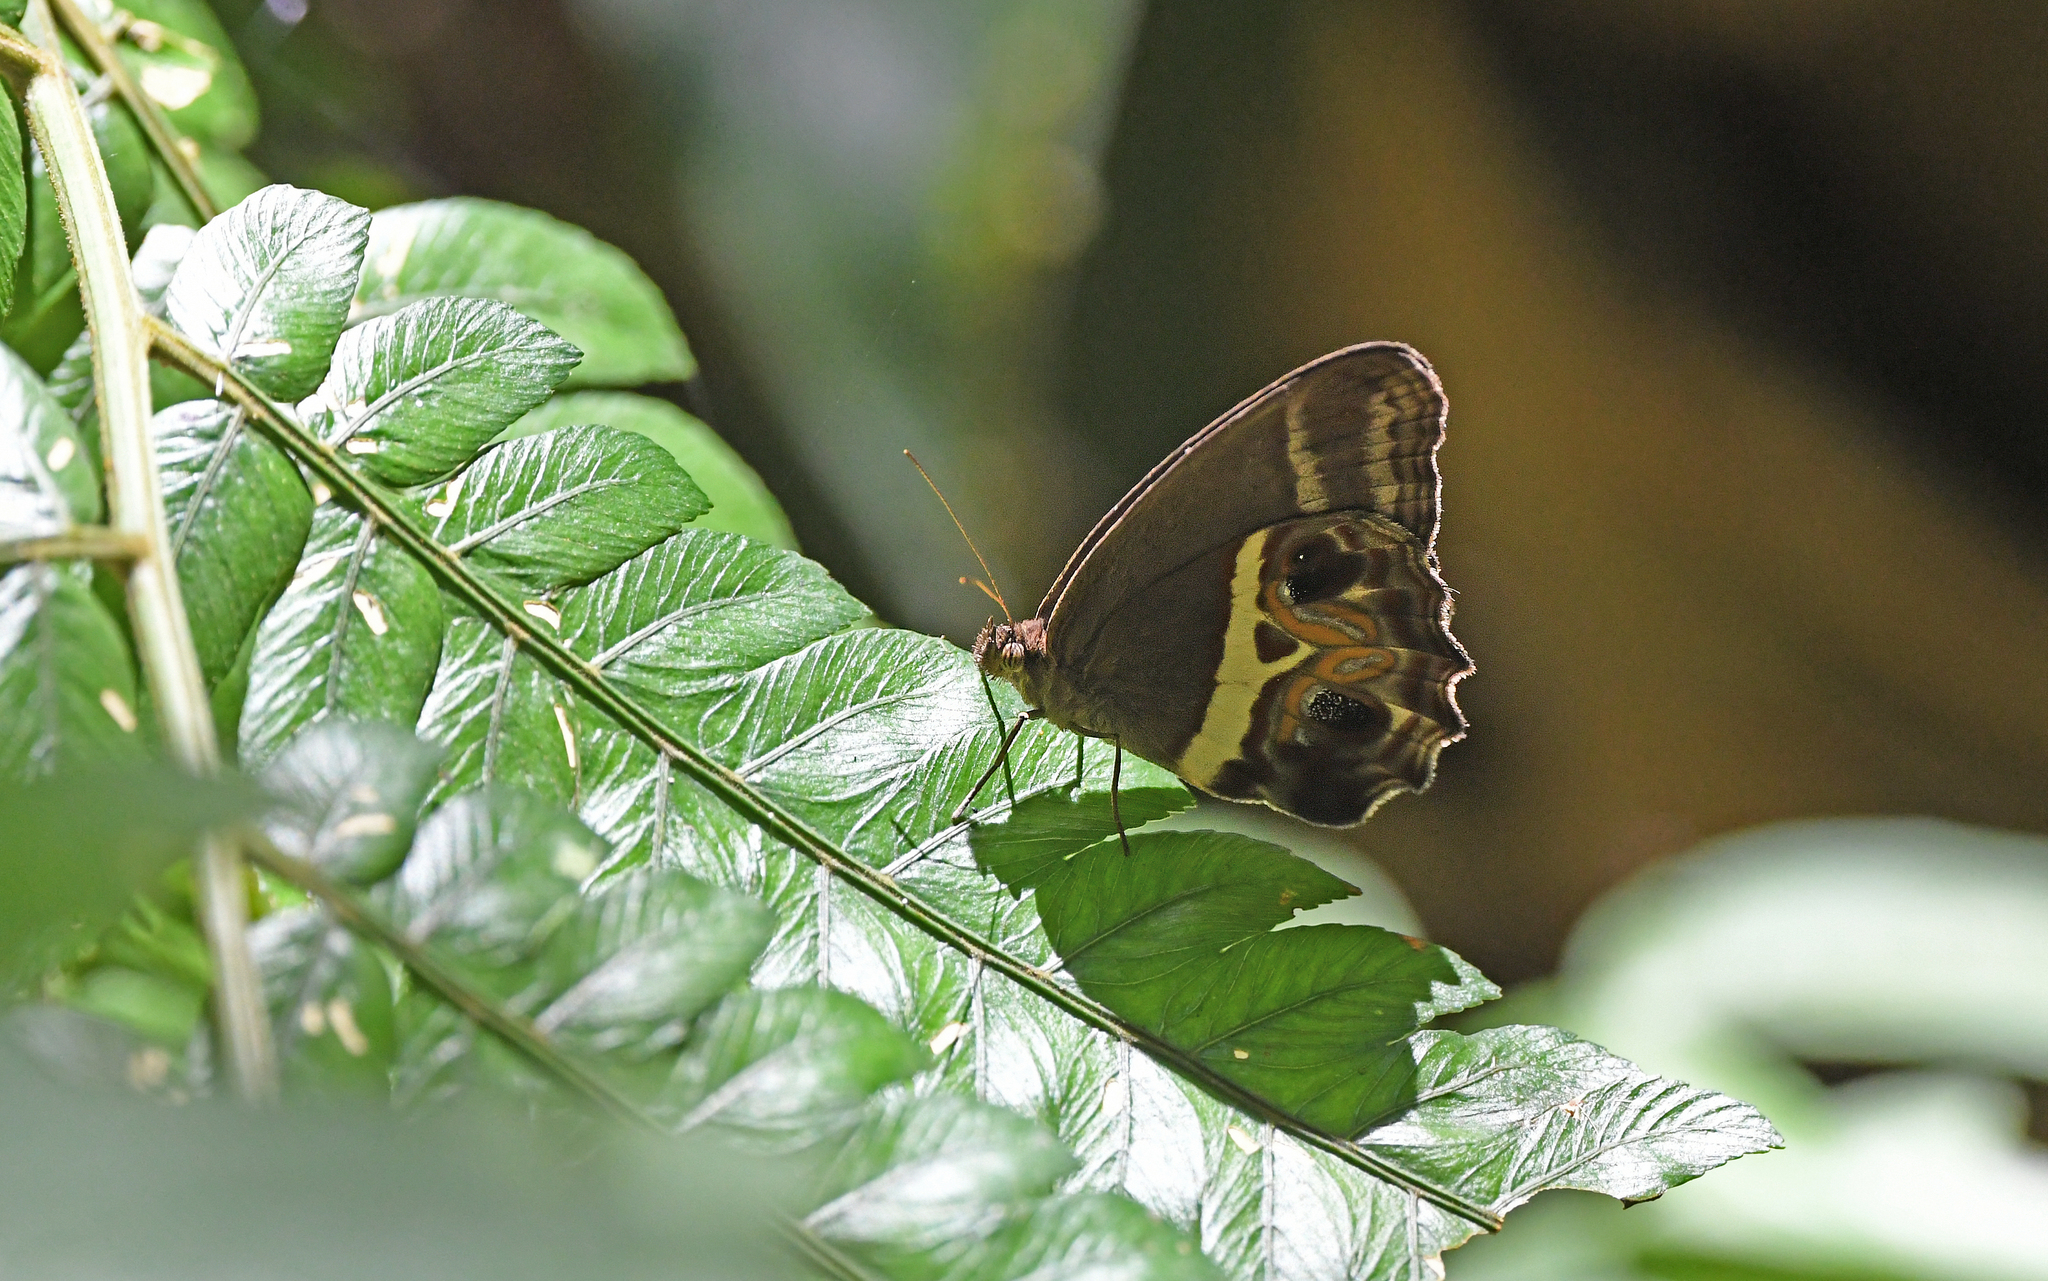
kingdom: Animalia
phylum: Arthropoda
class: Insecta
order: Lepidoptera
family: Nymphalidae
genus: Amphidecta
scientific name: Amphidecta
